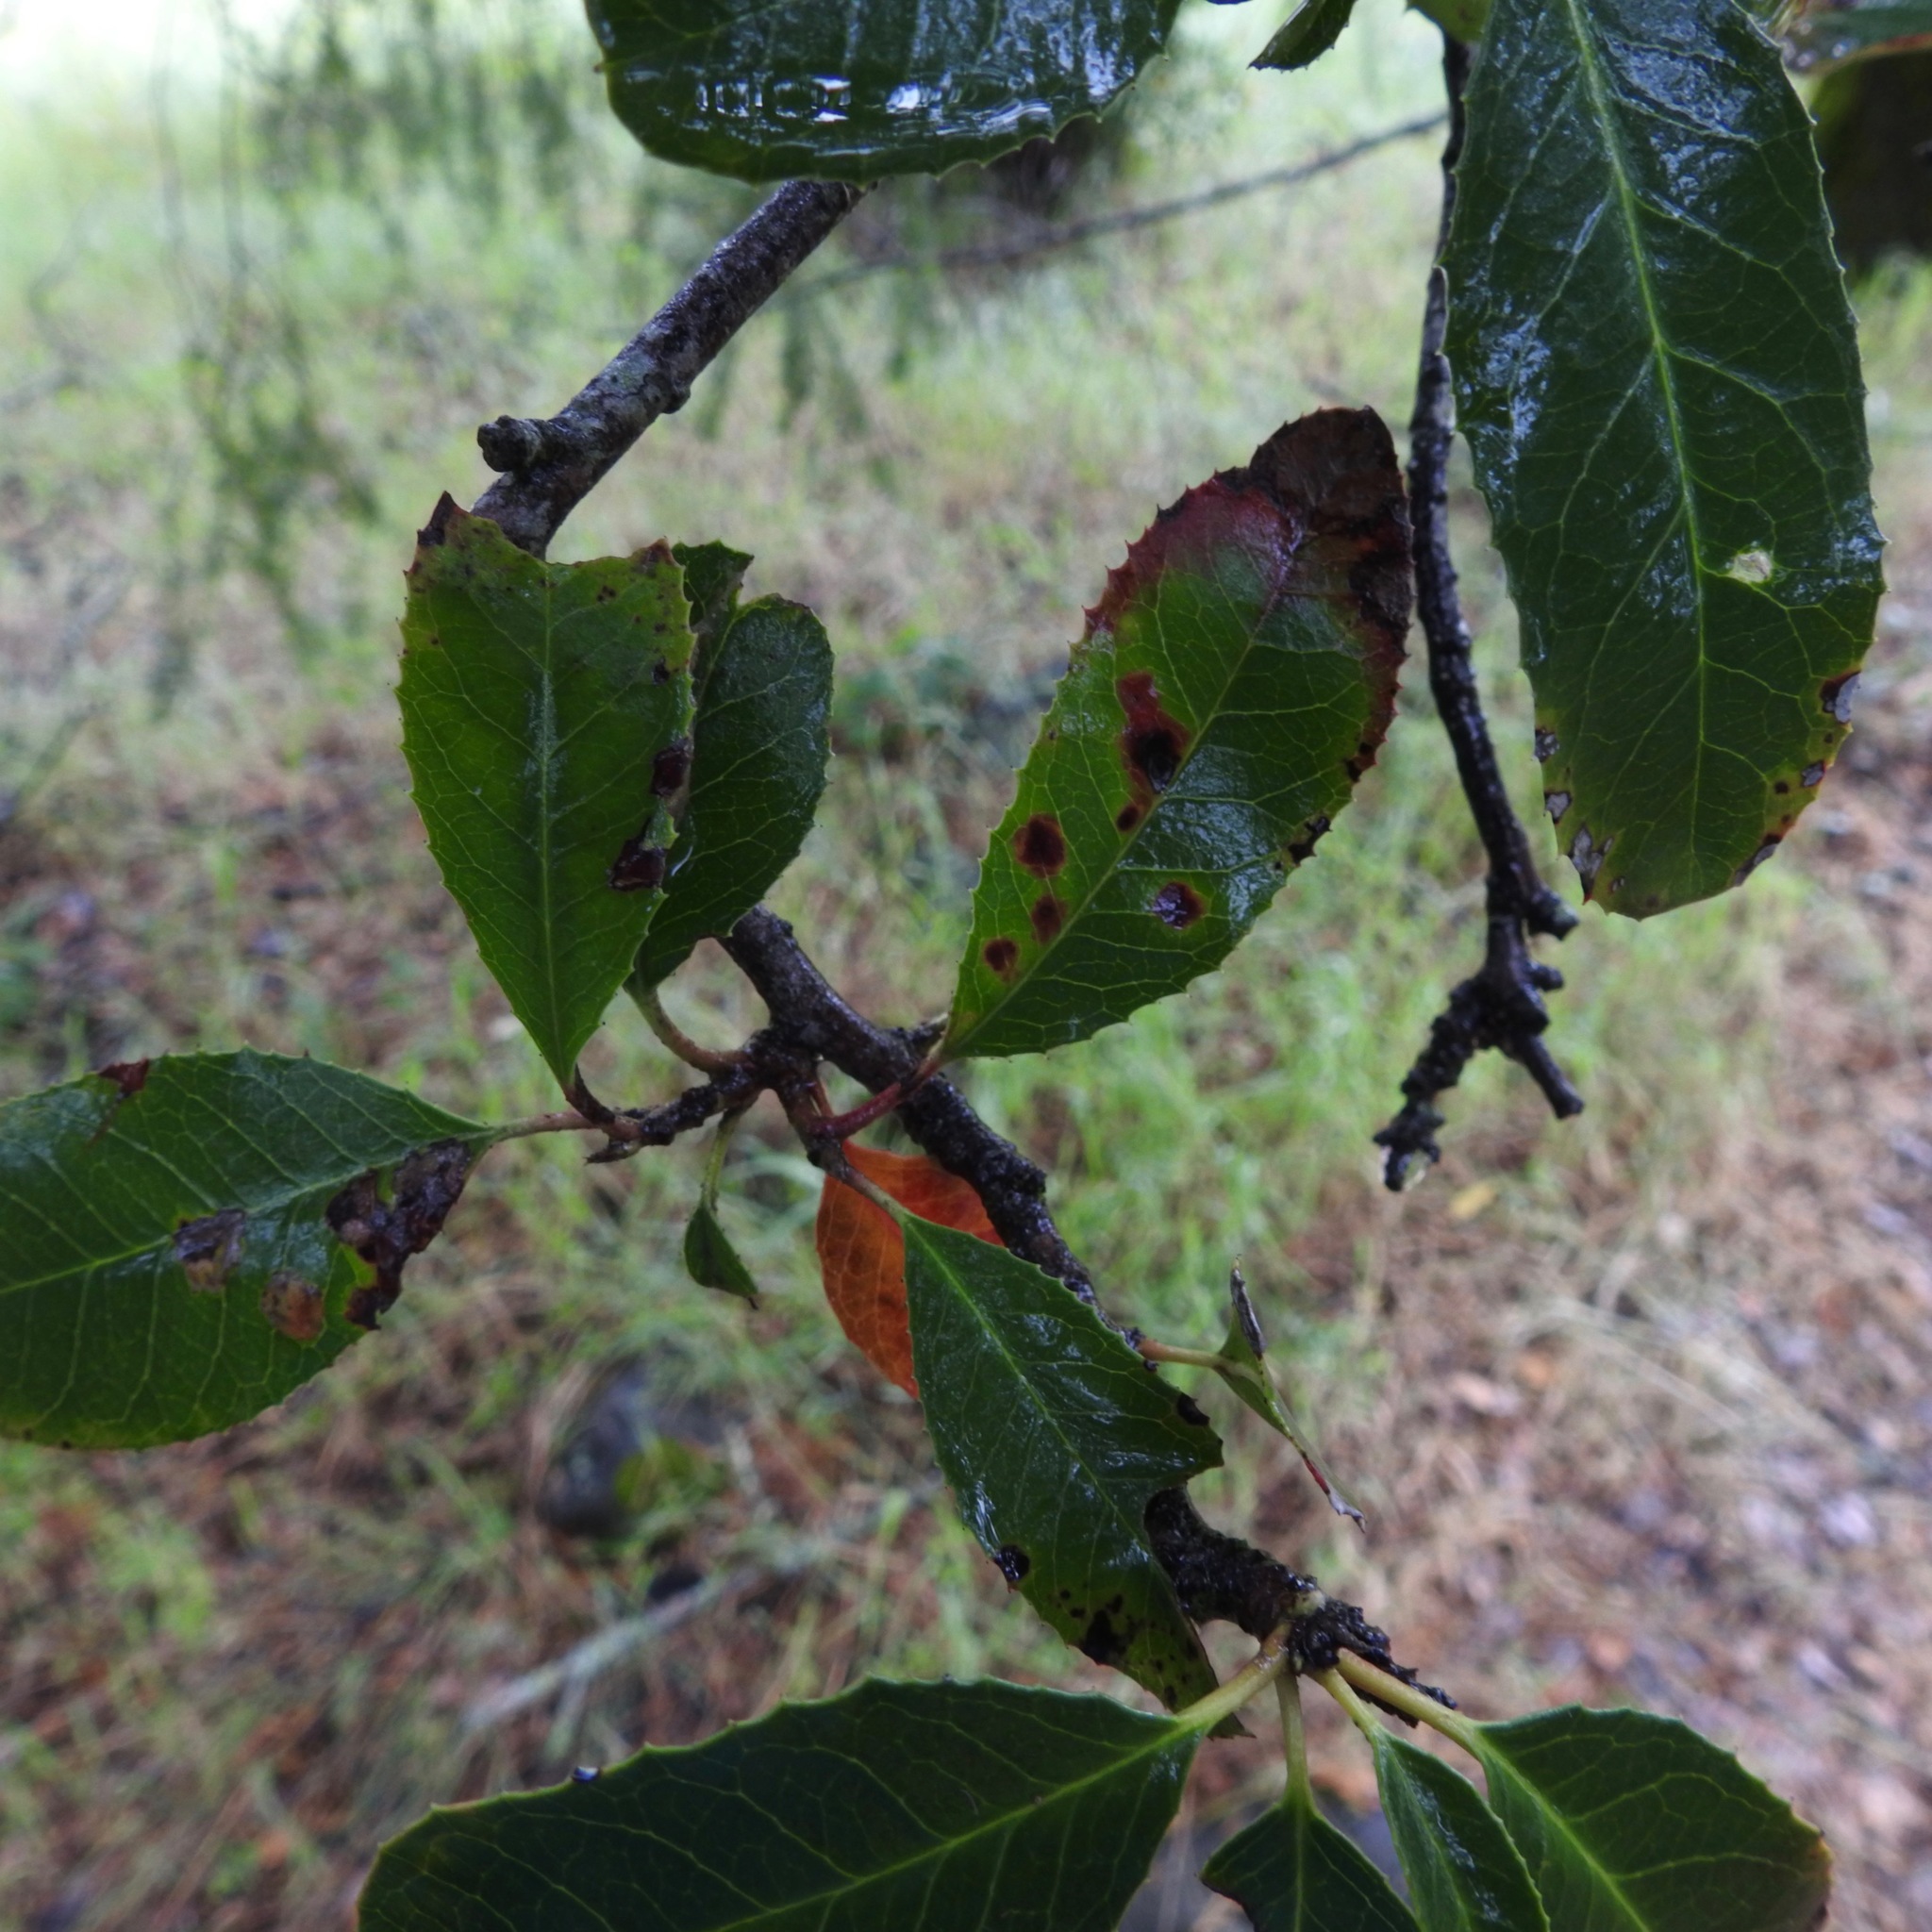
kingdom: Plantae
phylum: Tracheophyta
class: Magnoliopsida
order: Rosales
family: Rosaceae
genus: Heteromeles
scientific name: Heteromeles arbutifolia
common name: California-holly
